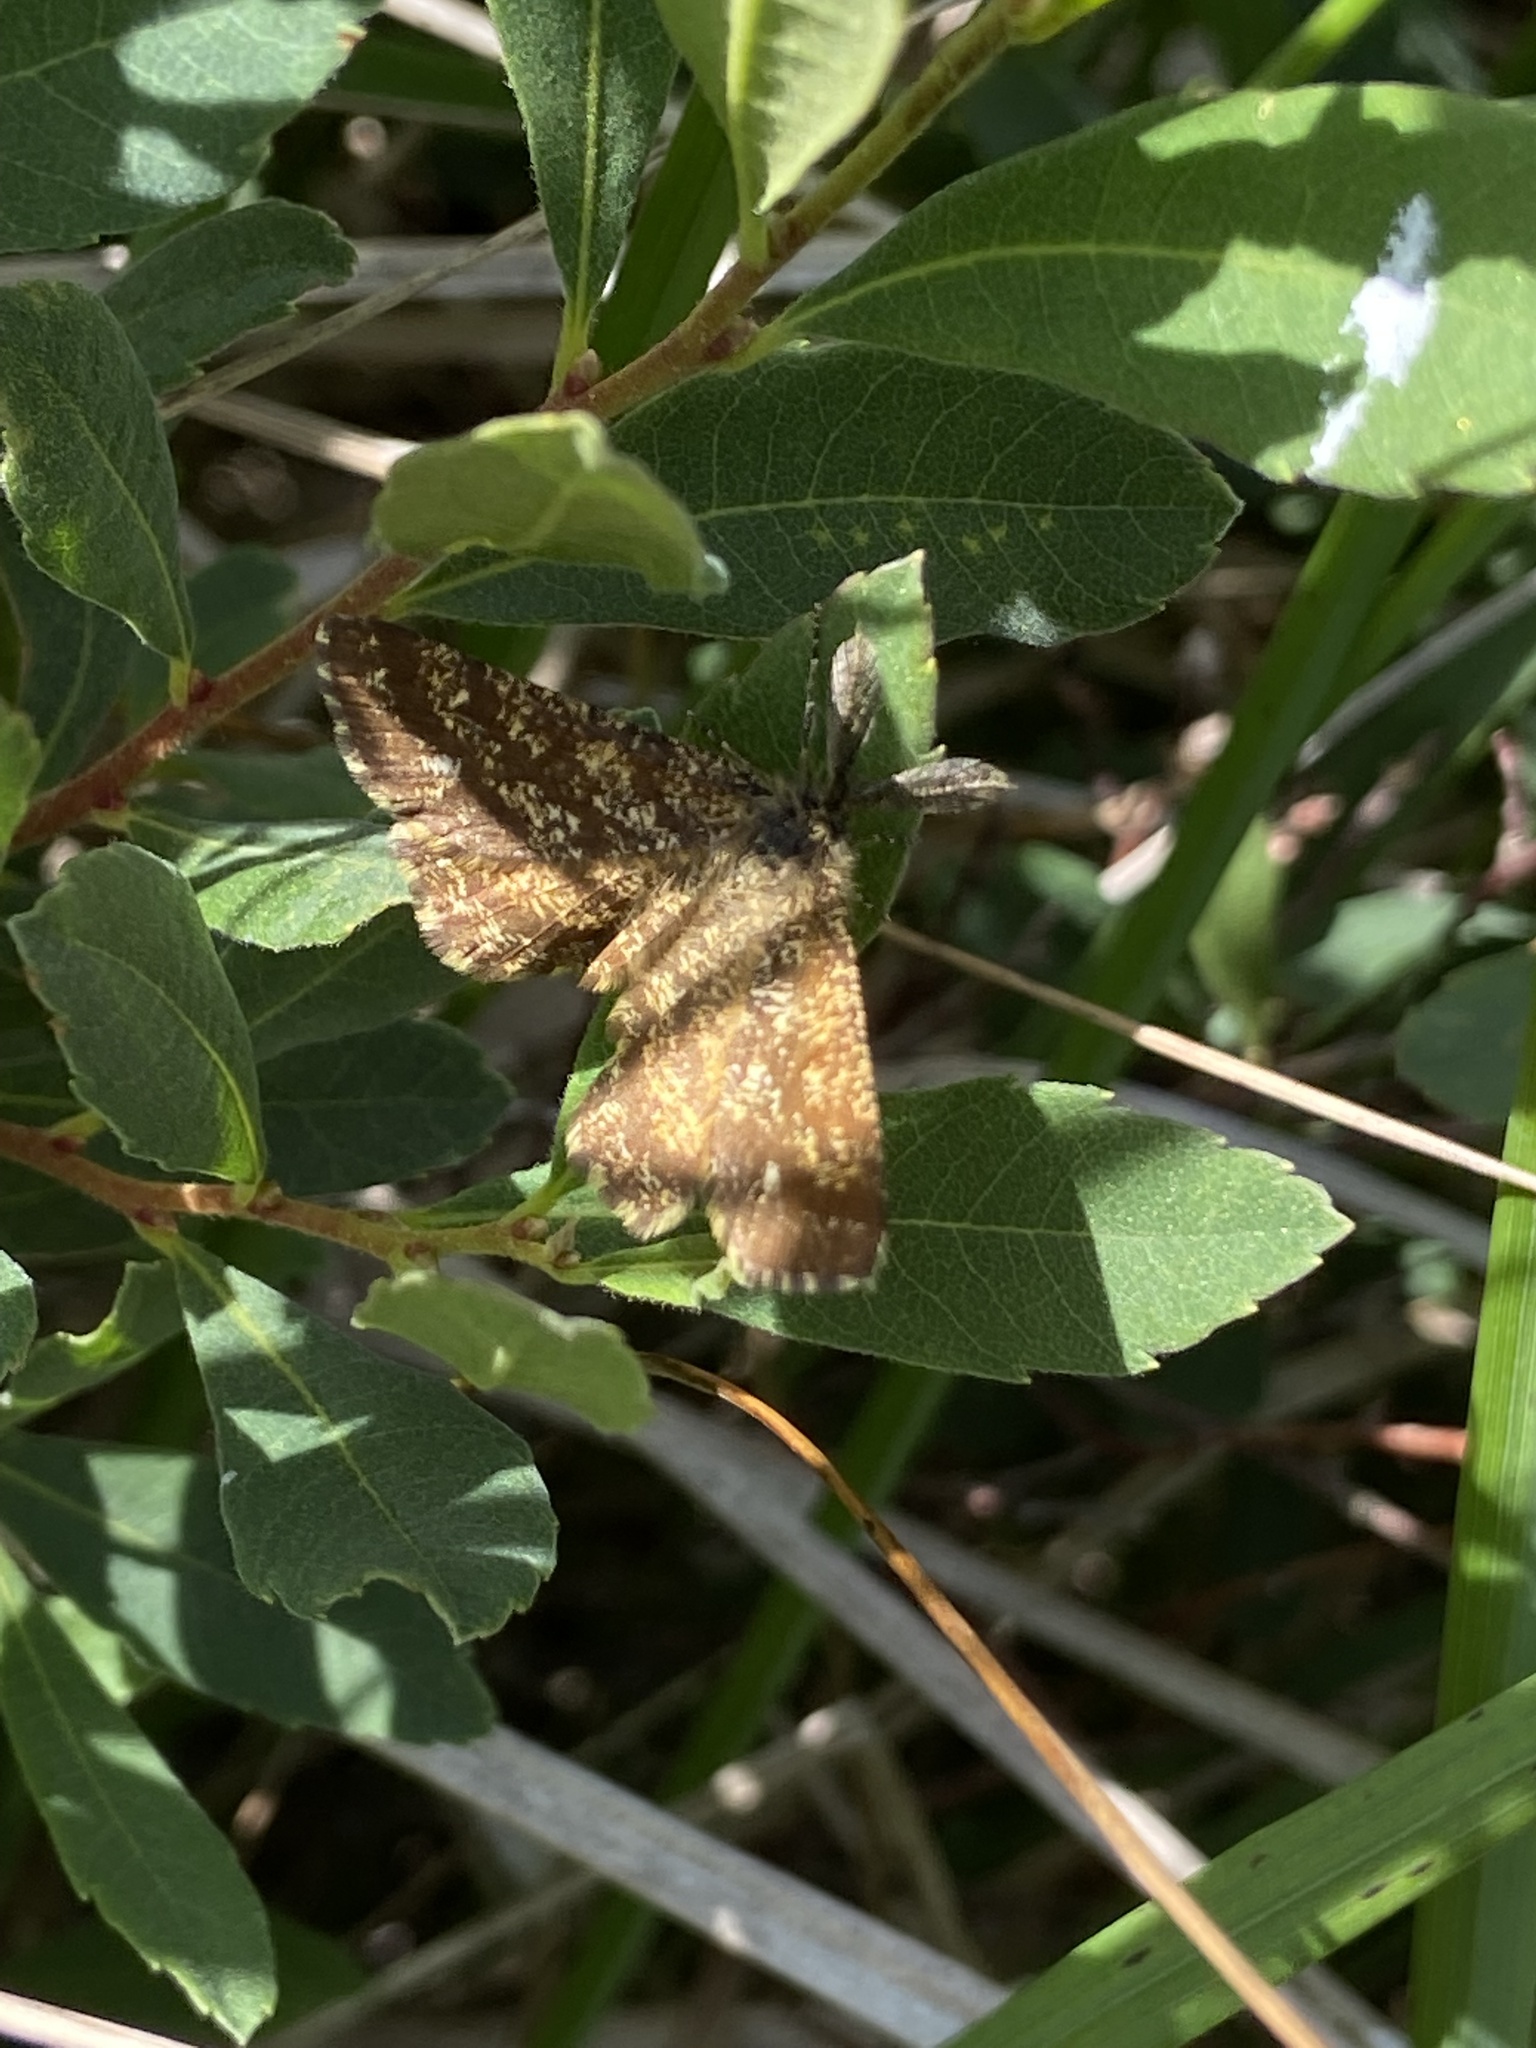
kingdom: Animalia
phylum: Arthropoda
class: Insecta
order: Lepidoptera
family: Geometridae
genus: Ematurga
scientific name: Ematurga atomaria
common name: Common heath
